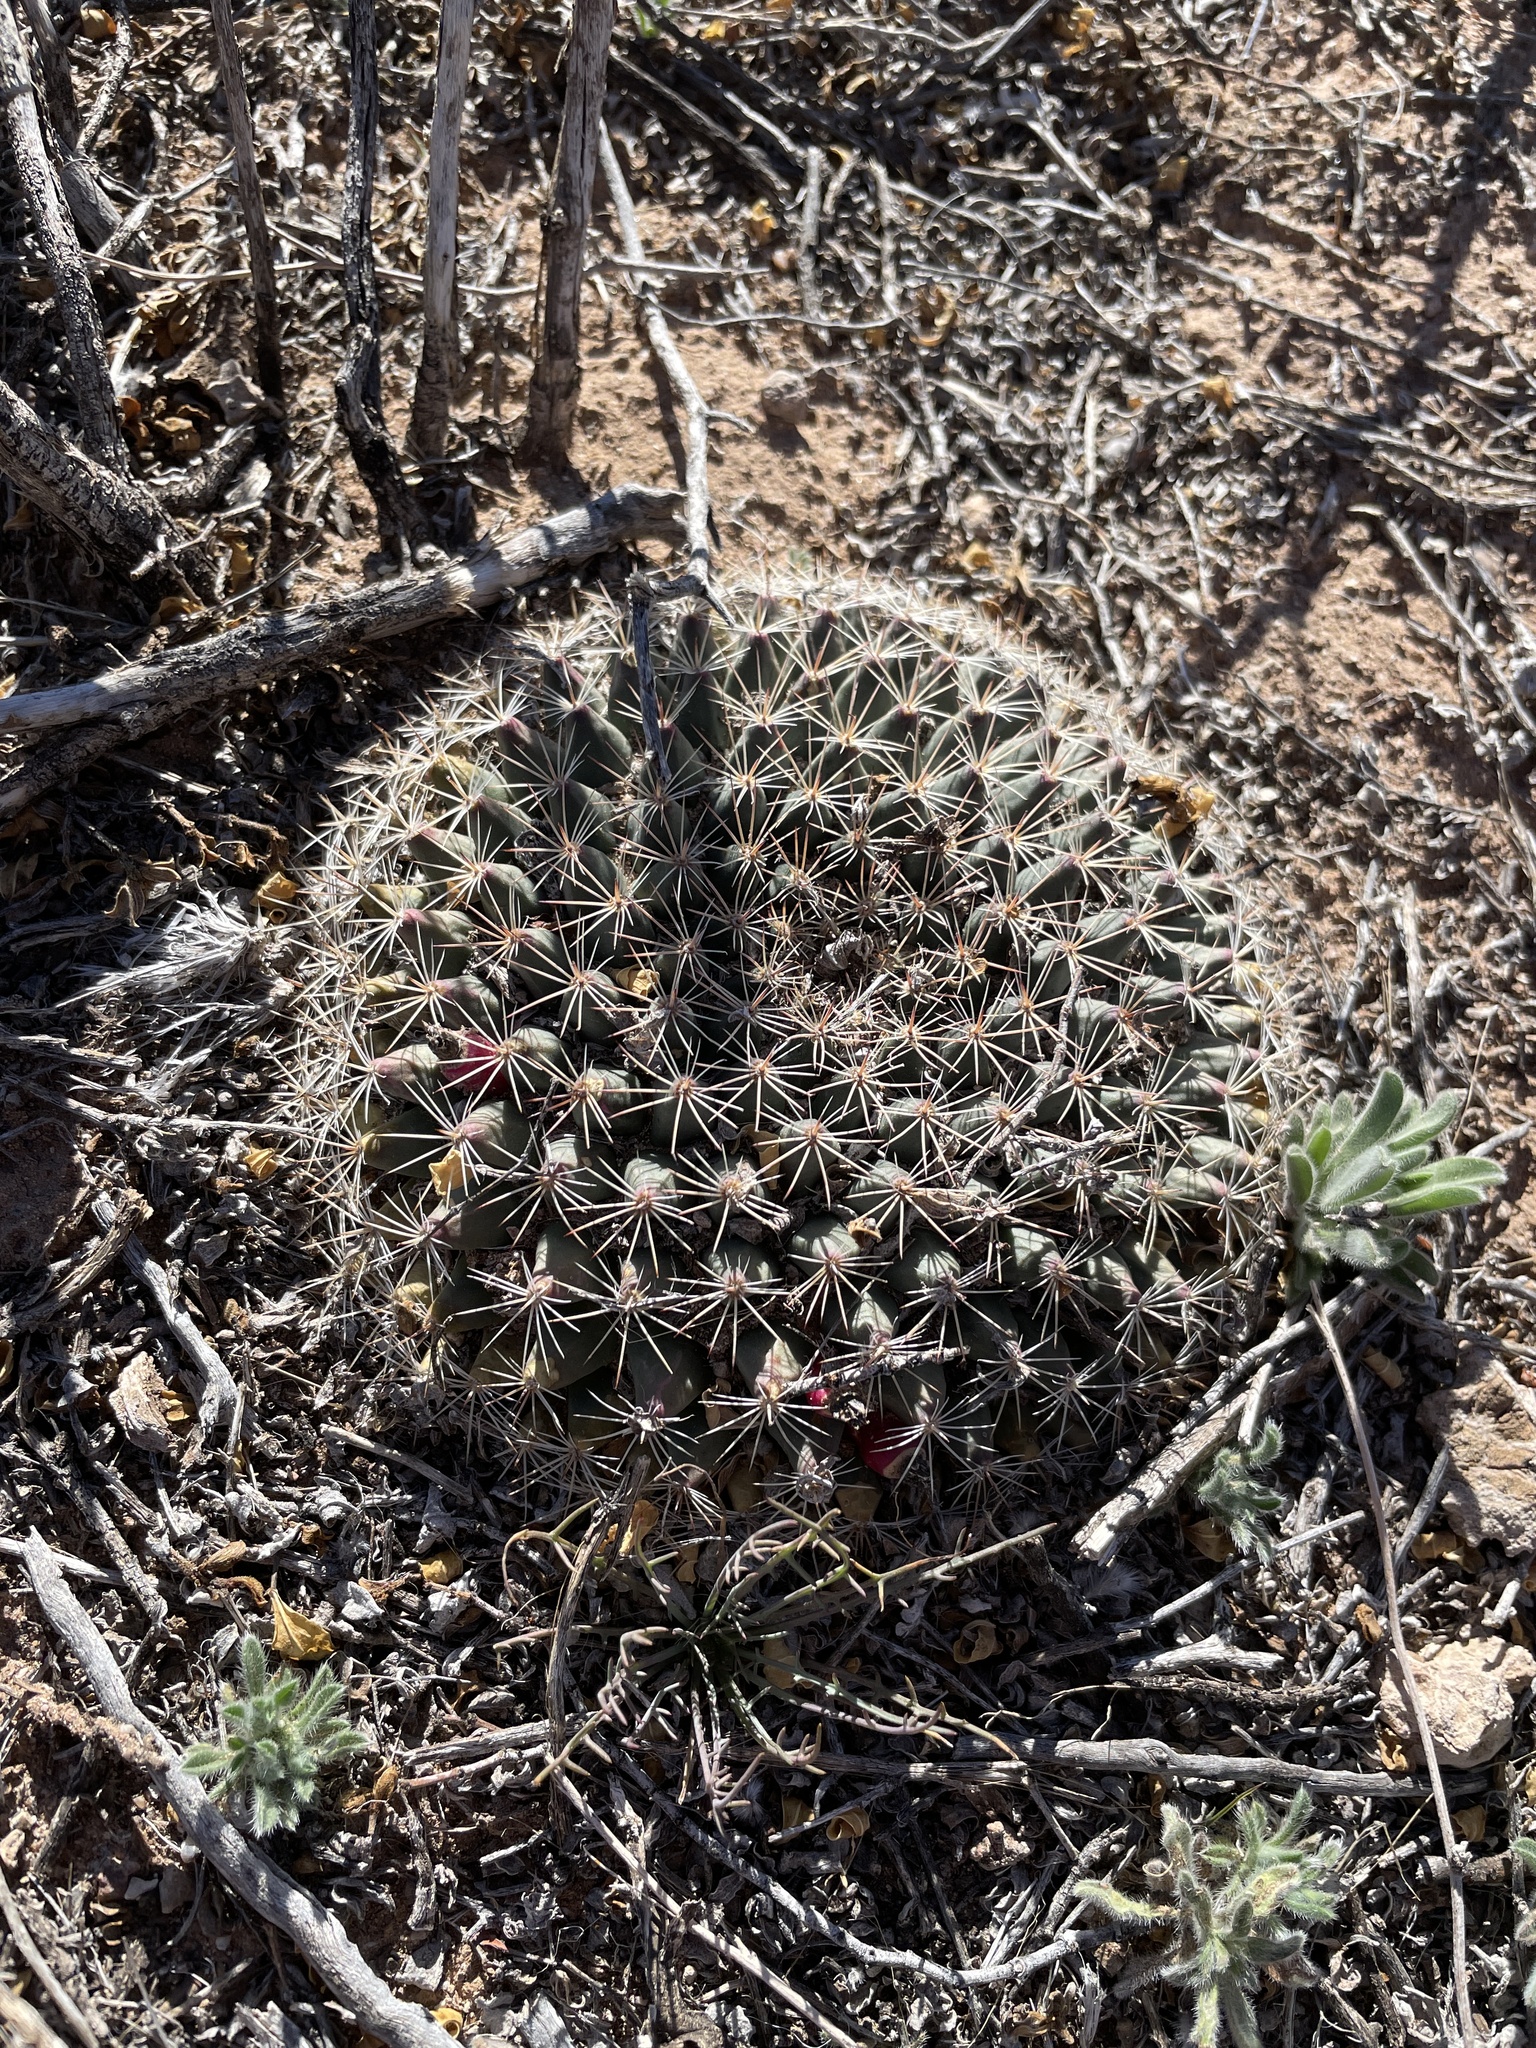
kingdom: Plantae
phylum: Tracheophyta
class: Magnoliopsida
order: Caryophyllales
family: Cactaceae
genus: Mammillaria
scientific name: Mammillaria heyderi
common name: Little nipple cactus
